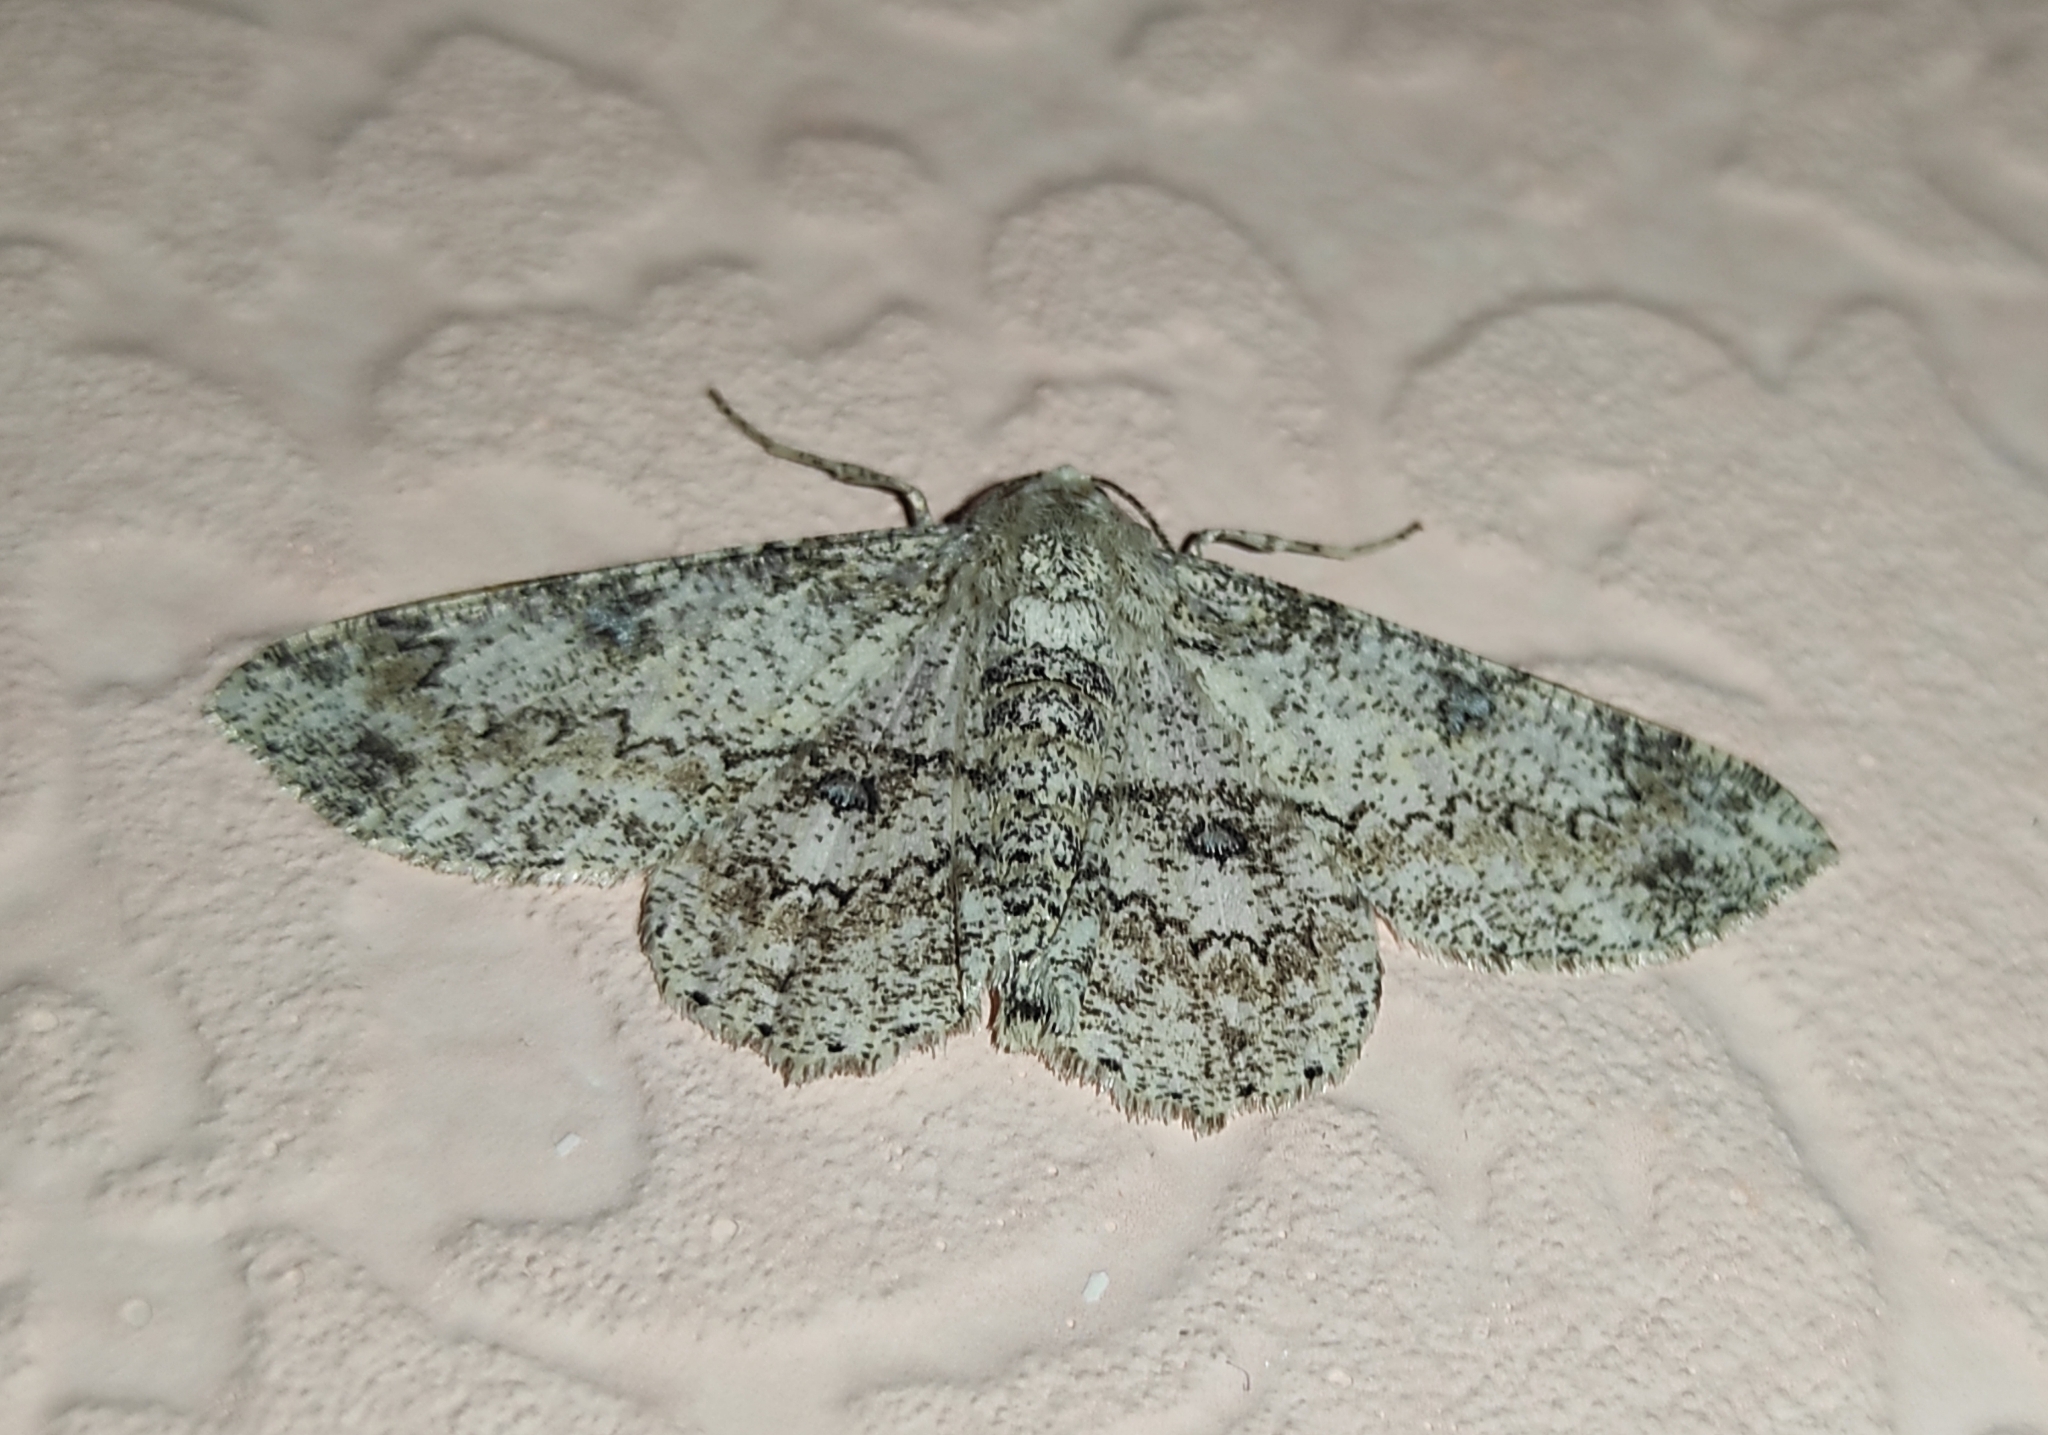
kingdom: Animalia
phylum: Arthropoda
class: Insecta
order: Lepidoptera
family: Geometridae
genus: Ascotis
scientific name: Ascotis selenaria
